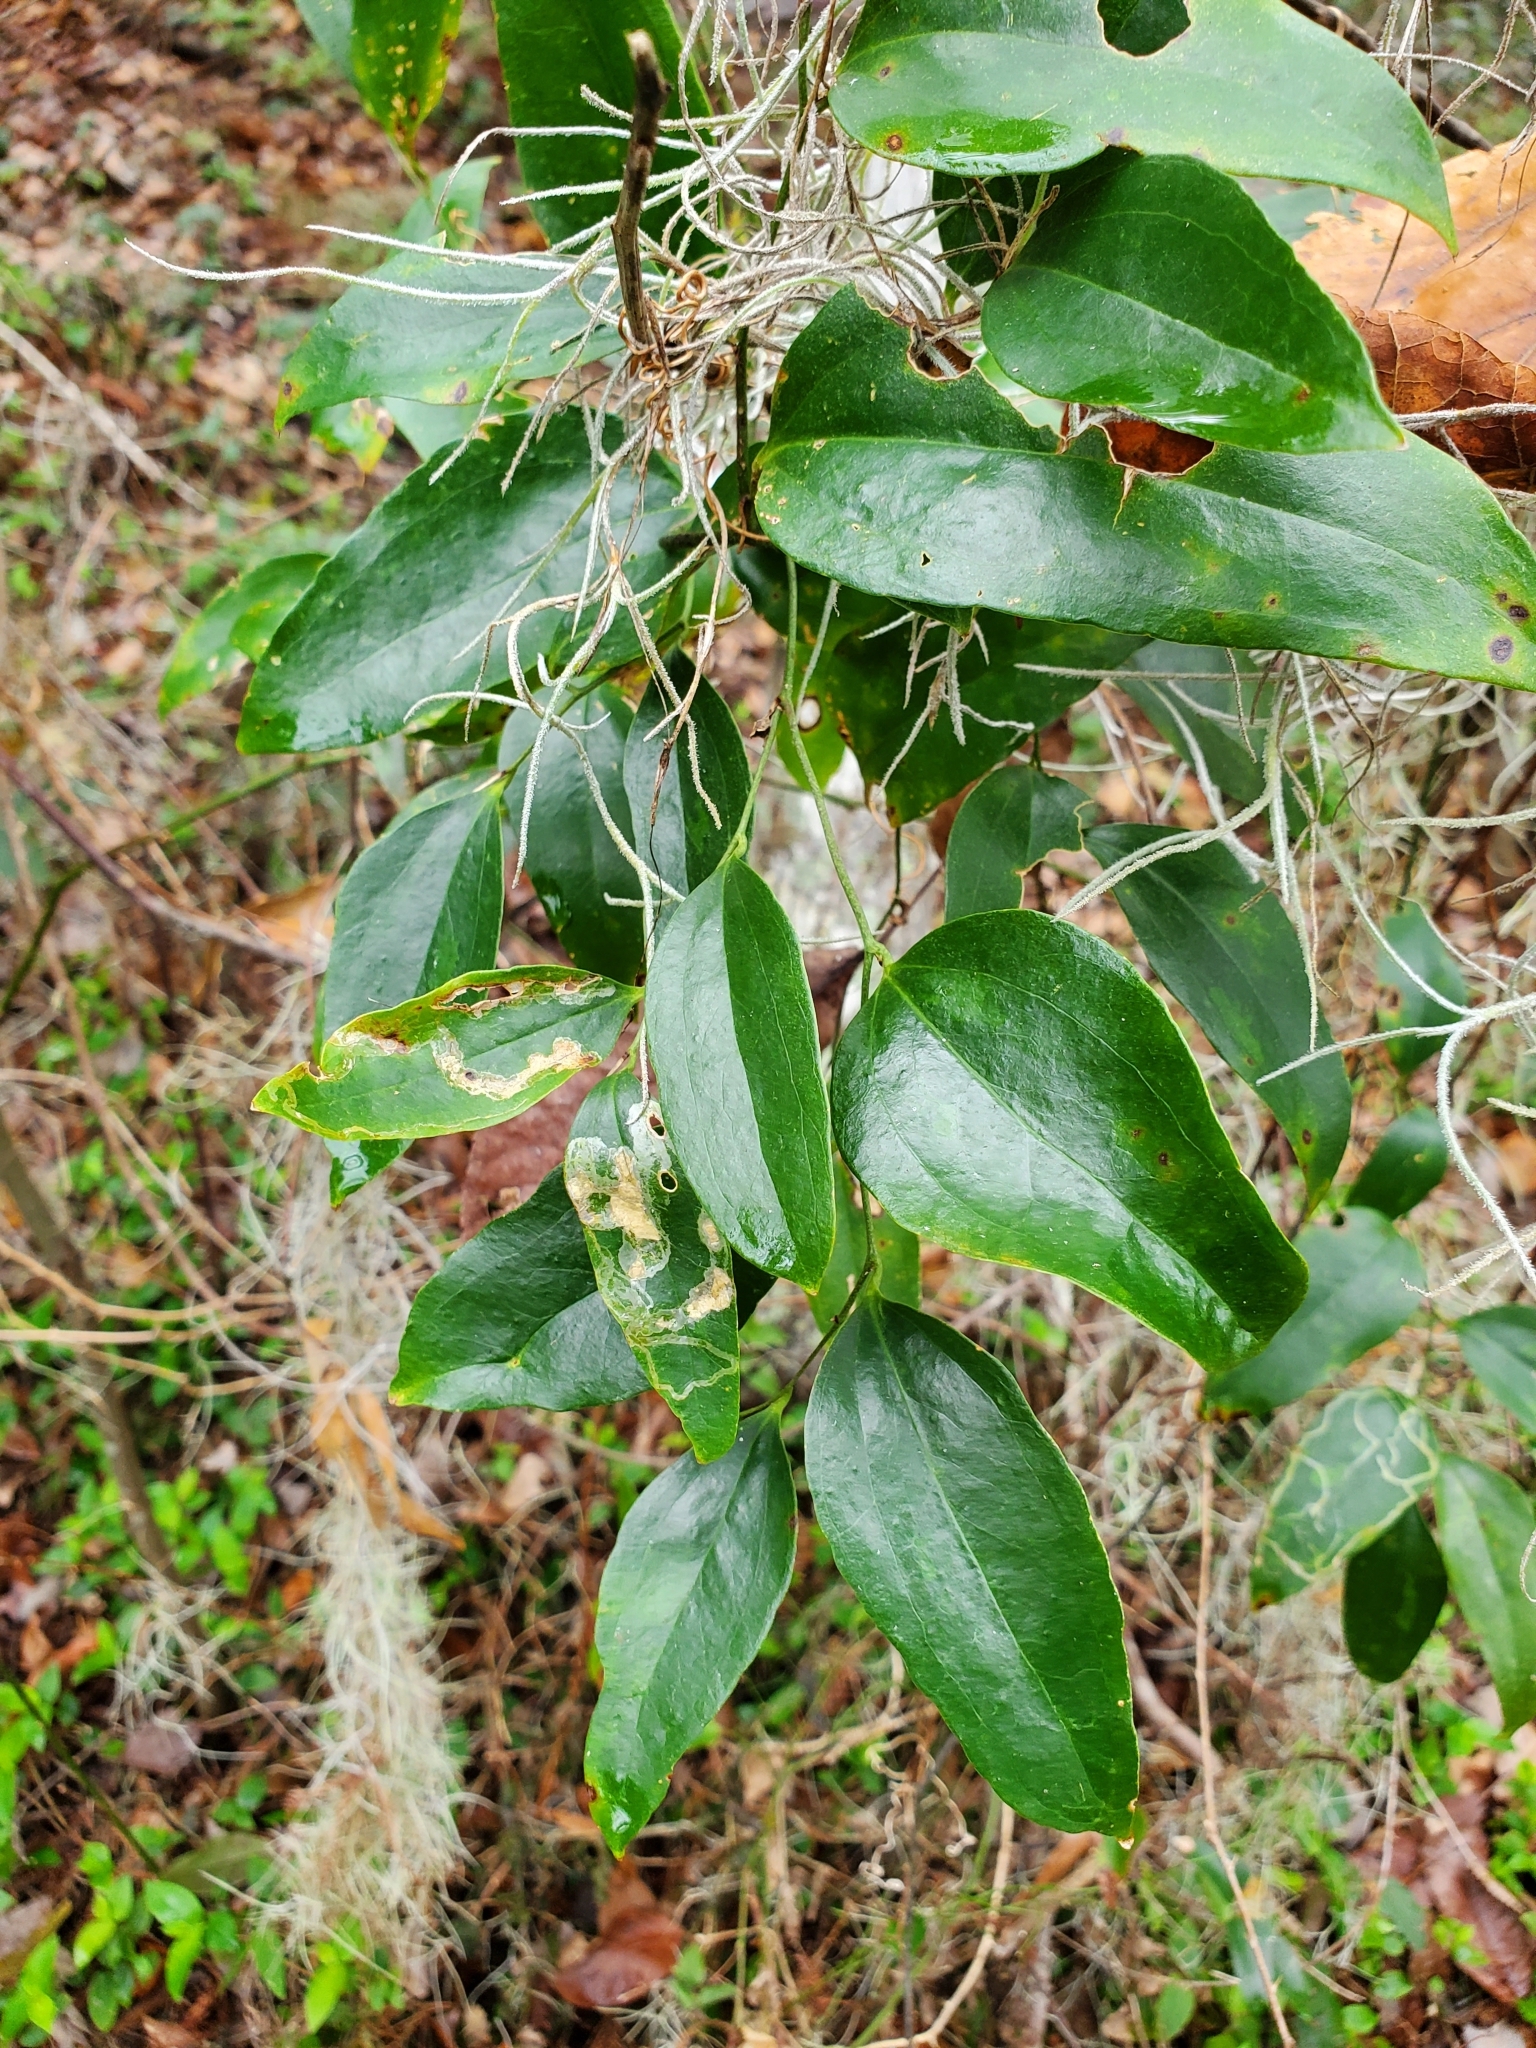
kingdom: Plantae
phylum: Tracheophyta
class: Liliopsida
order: Liliales
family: Smilacaceae
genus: Smilax
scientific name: Smilax maritima
